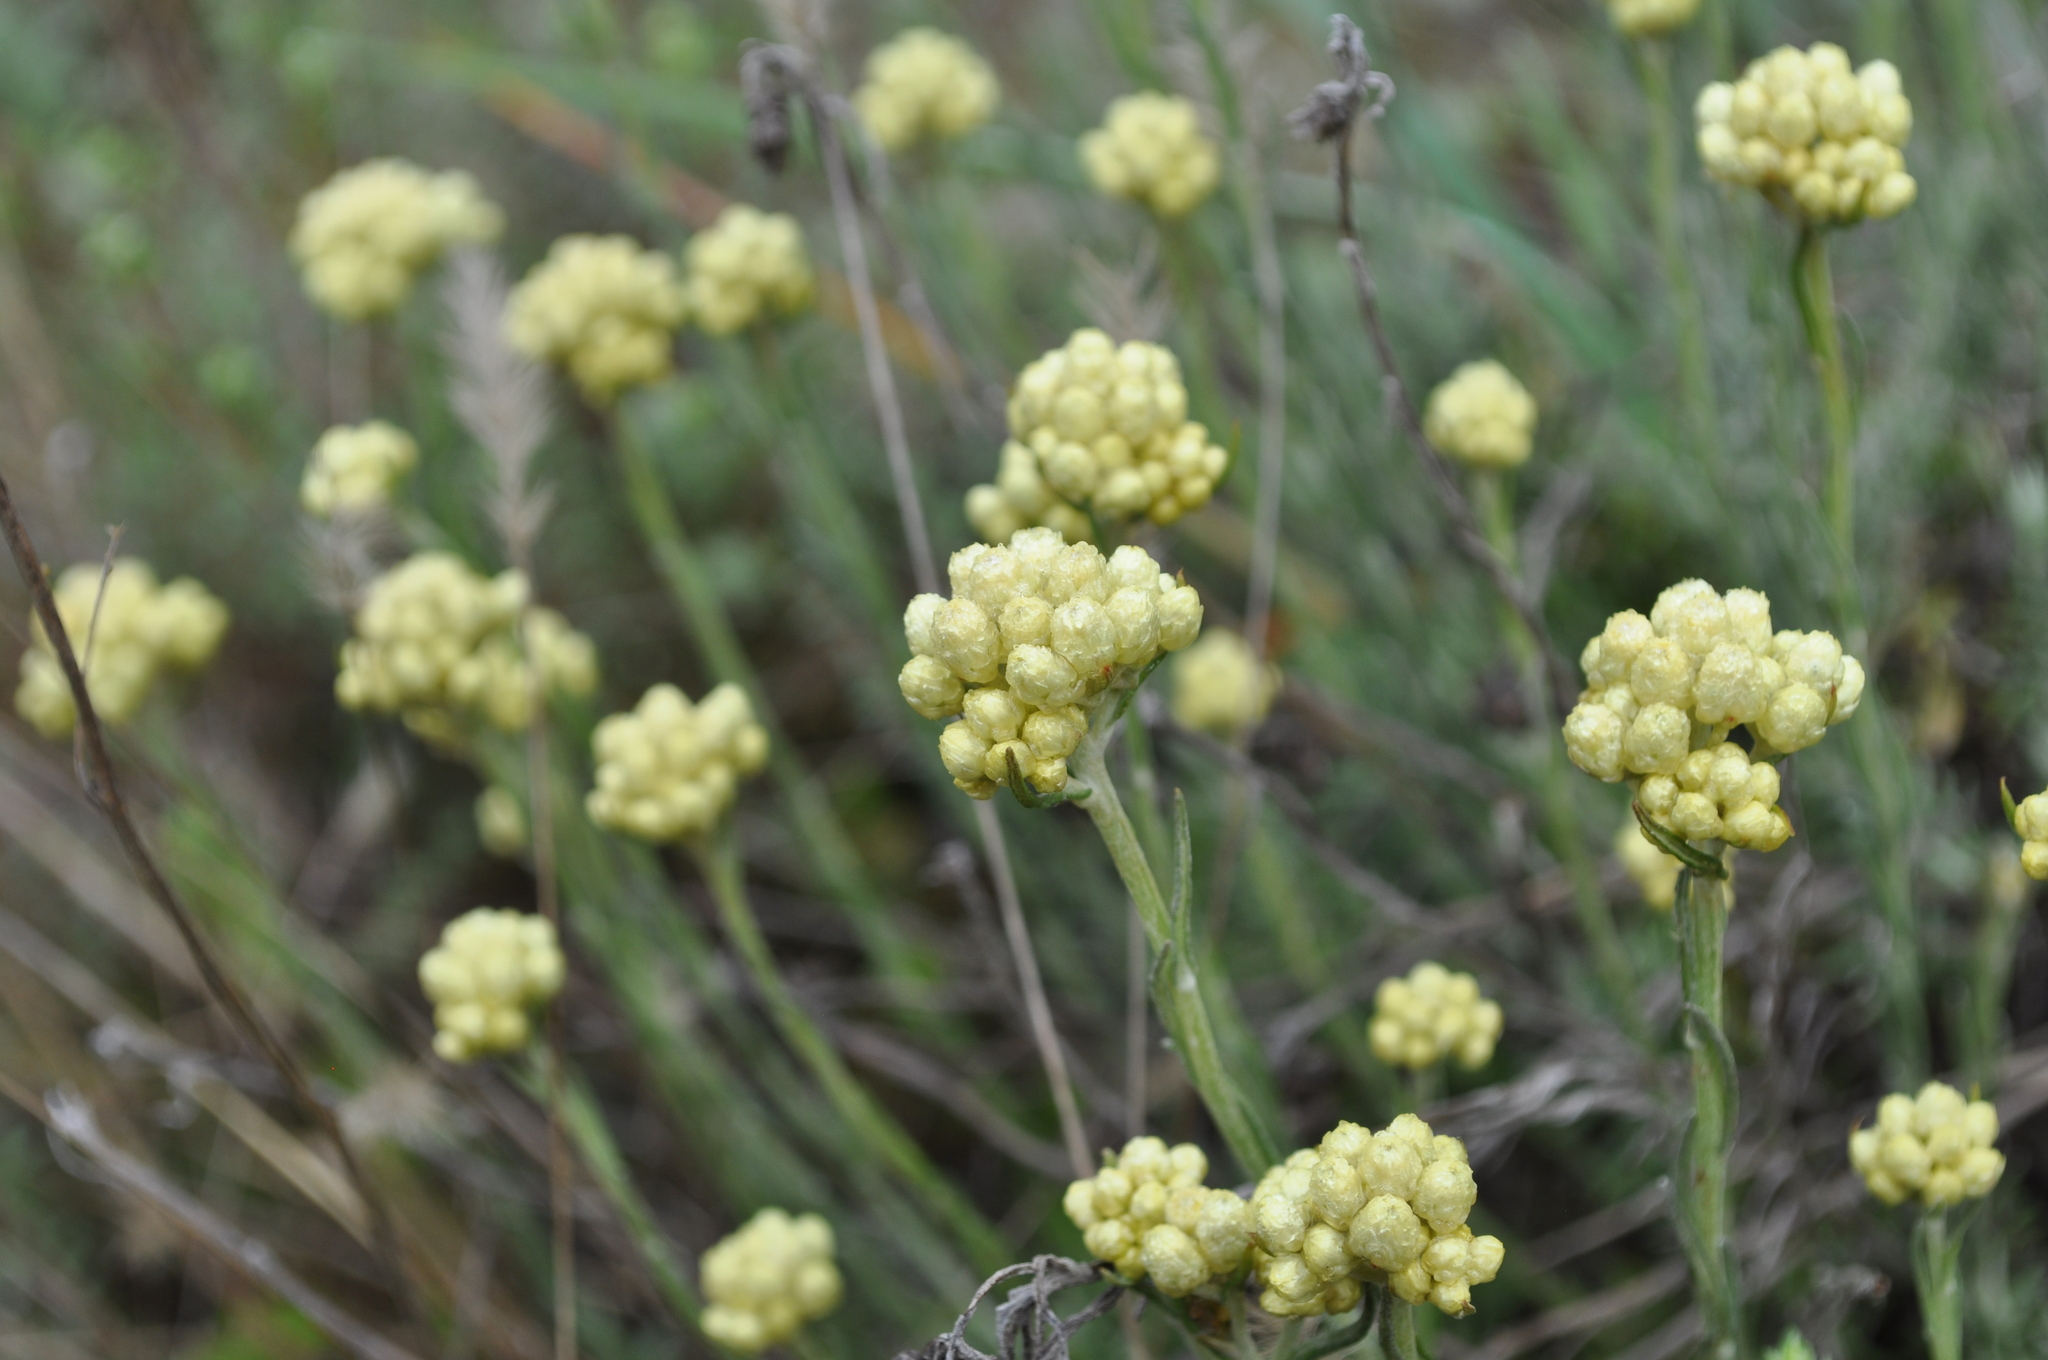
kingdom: Plantae
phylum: Tracheophyta
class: Magnoliopsida
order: Asterales
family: Asteraceae
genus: Helichrysum
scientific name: Helichrysum stoechas
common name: Goldilocks
